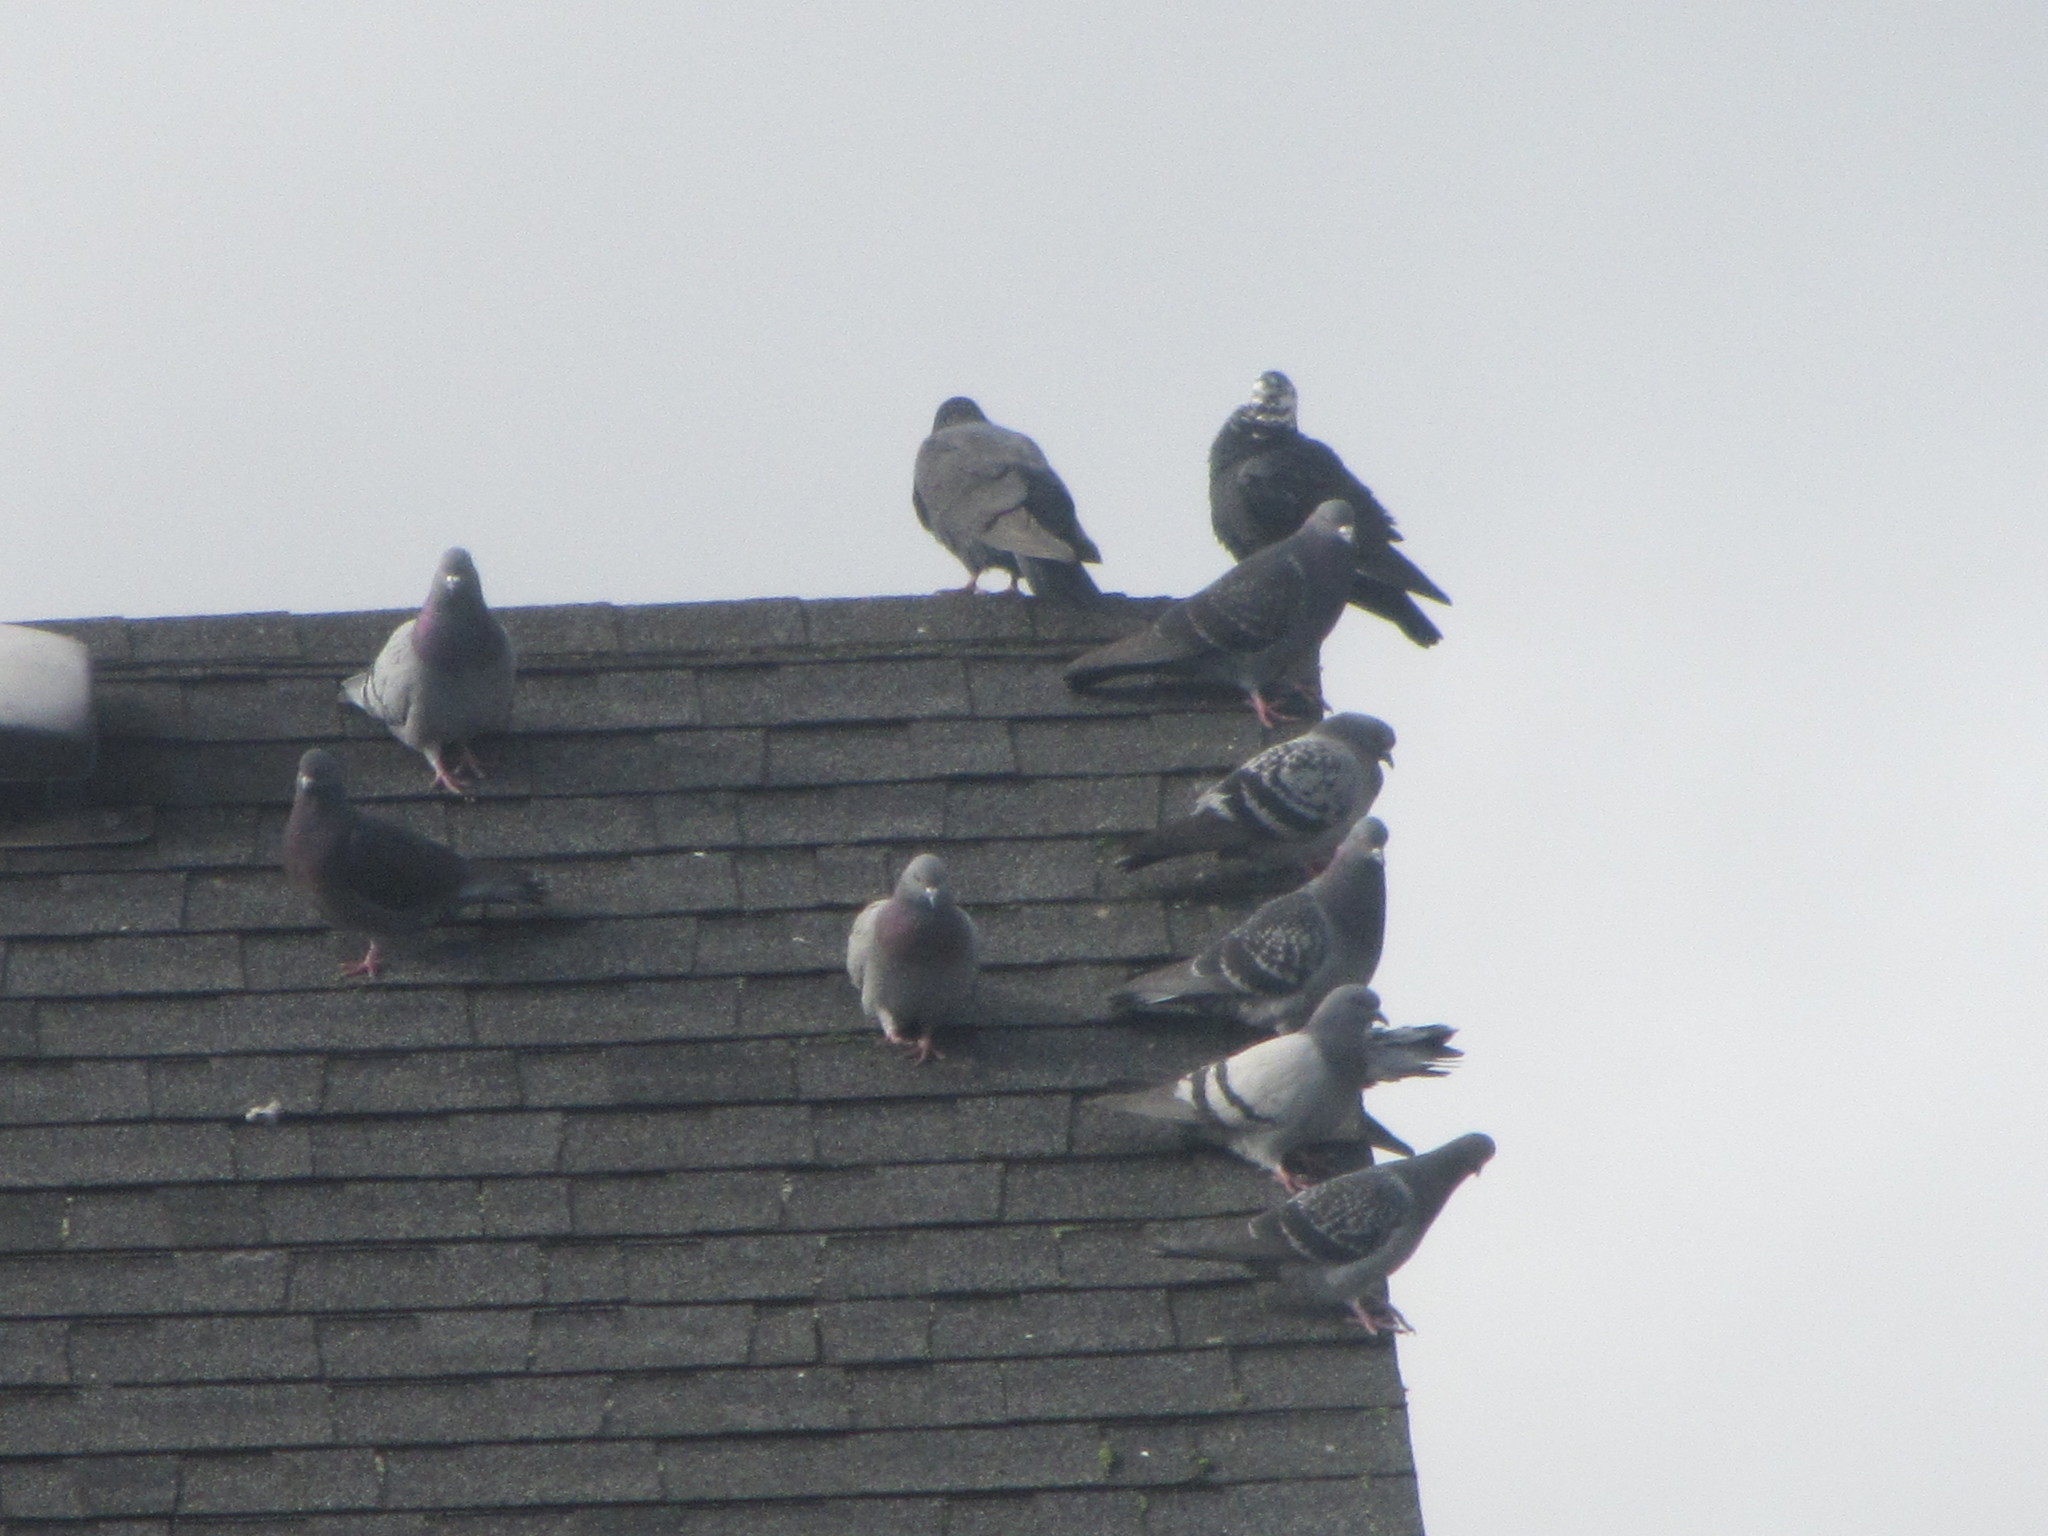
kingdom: Animalia
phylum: Chordata
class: Aves
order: Columbiformes
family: Columbidae
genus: Columba
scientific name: Columba livia
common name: Rock pigeon
